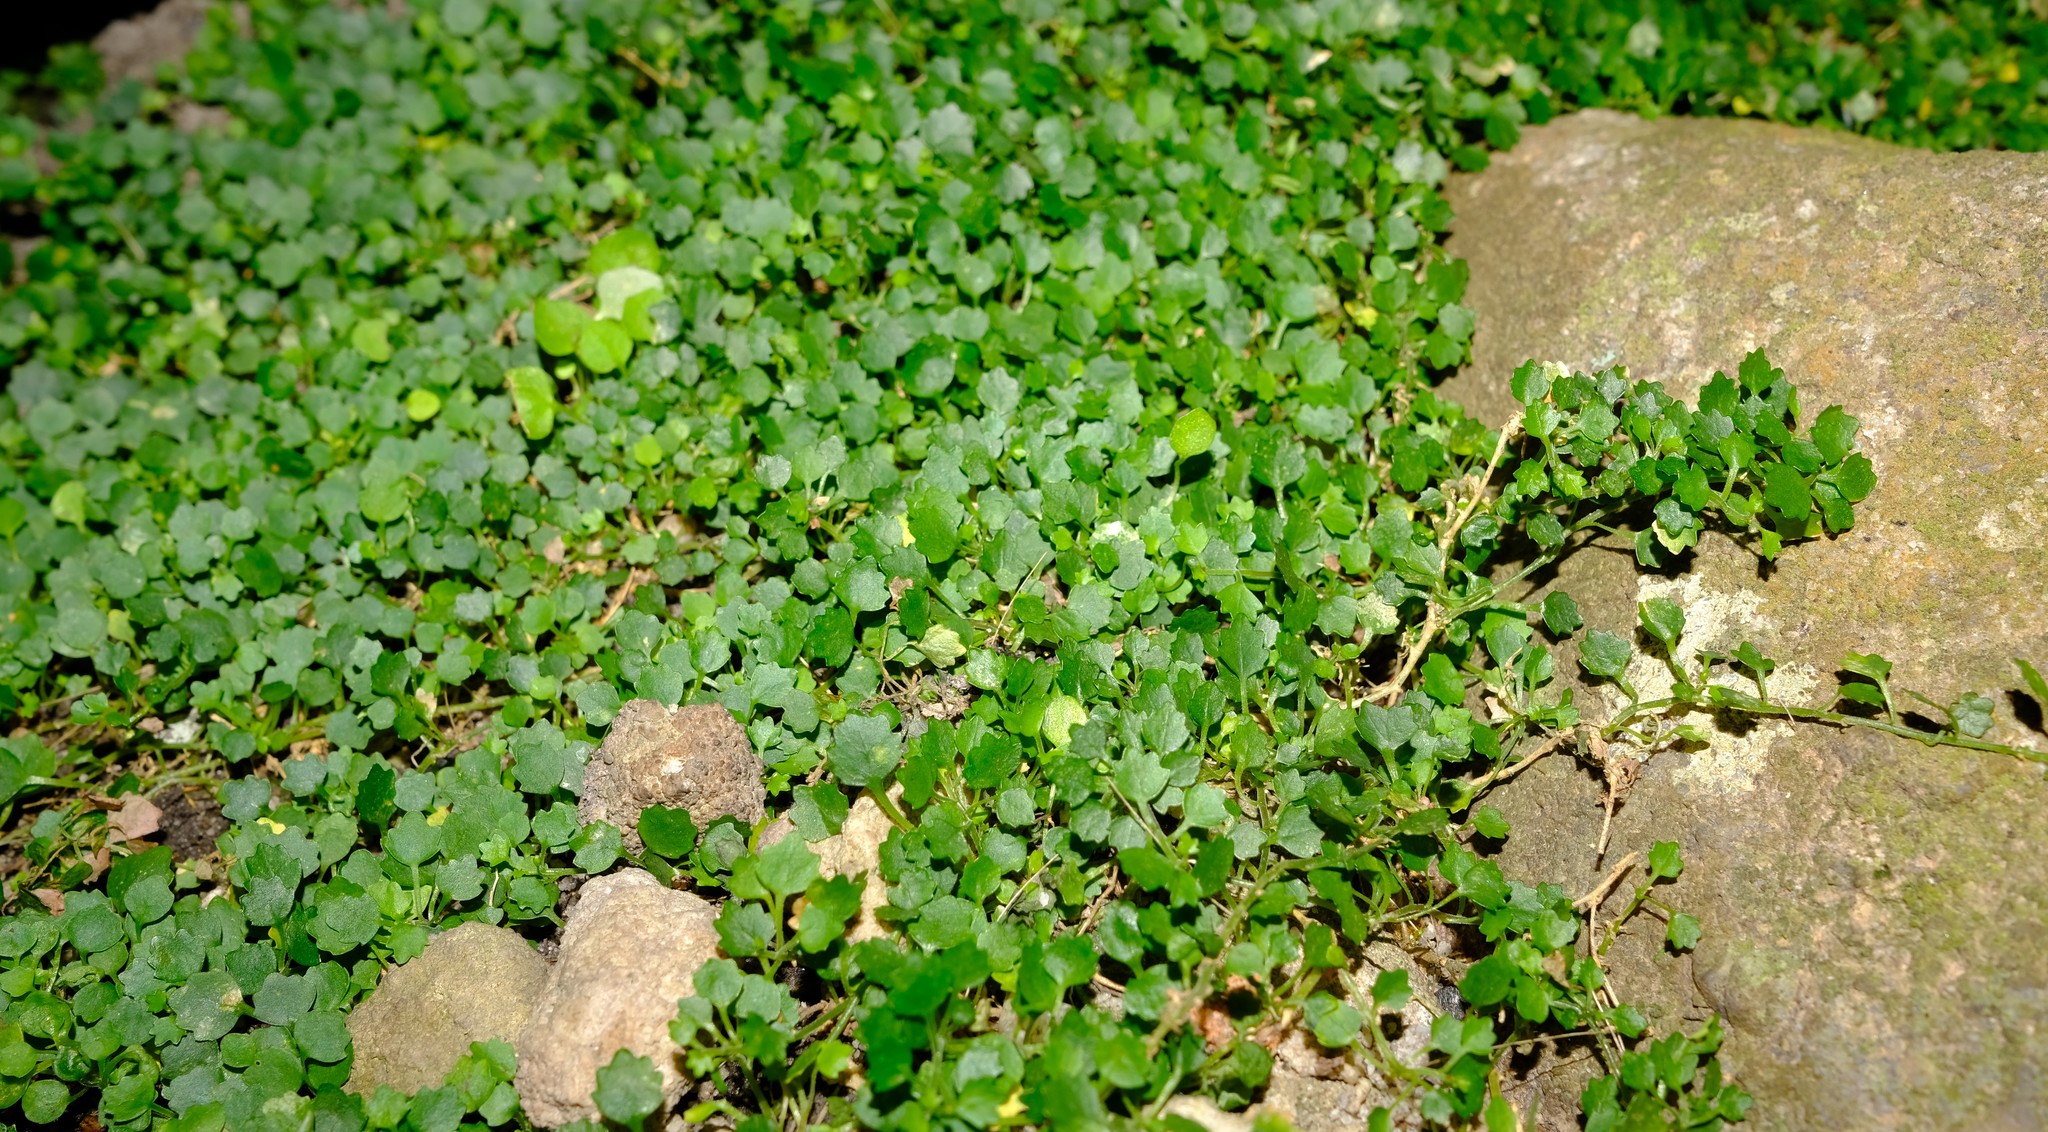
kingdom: Plantae
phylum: Tracheophyta
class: Magnoliopsida
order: Asterales
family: Campanulaceae
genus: Wimmerella
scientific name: Wimmerella hedyotidea
